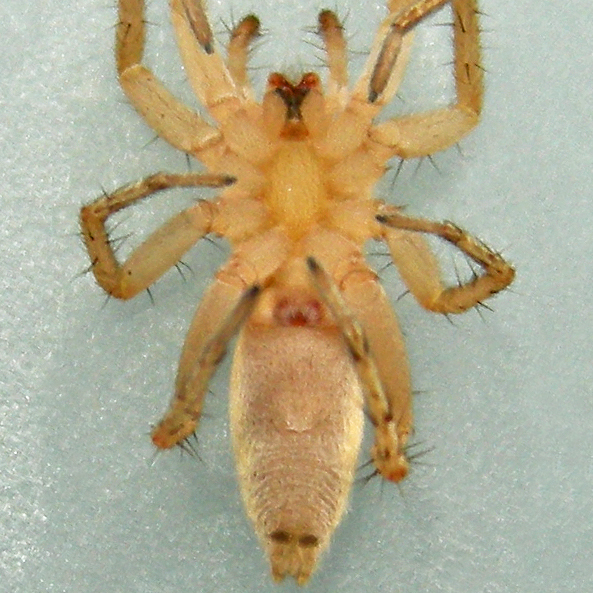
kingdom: Animalia
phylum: Arthropoda
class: Arachnida
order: Araneae
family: Anyphaenidae
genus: Arachosia
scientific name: Arachosia cubana
